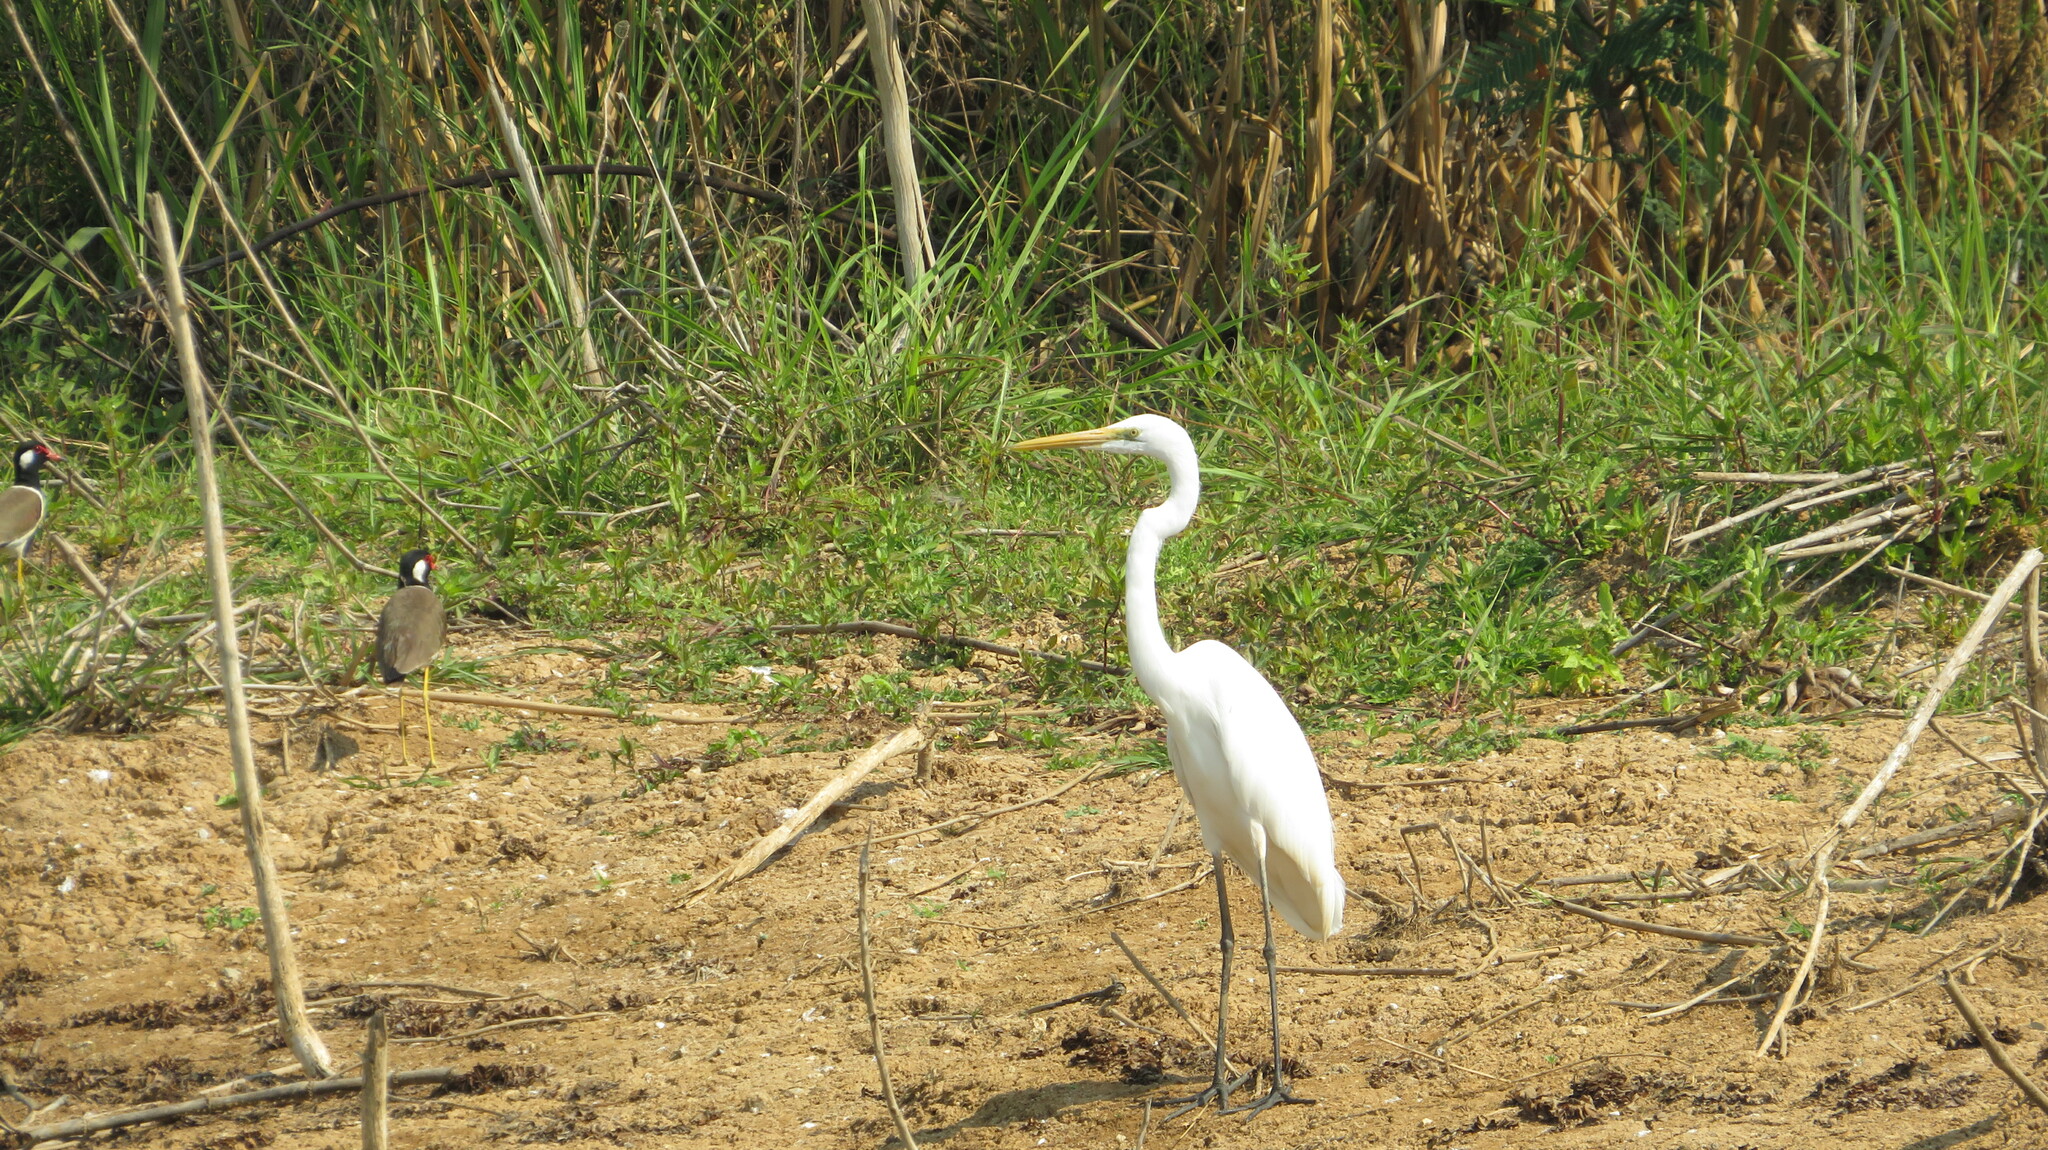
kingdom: Animalia
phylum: Chordata
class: Aves
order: Pelecaniformes
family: Ardeidae
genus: Ardea
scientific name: Ardea alba
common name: Great egret
